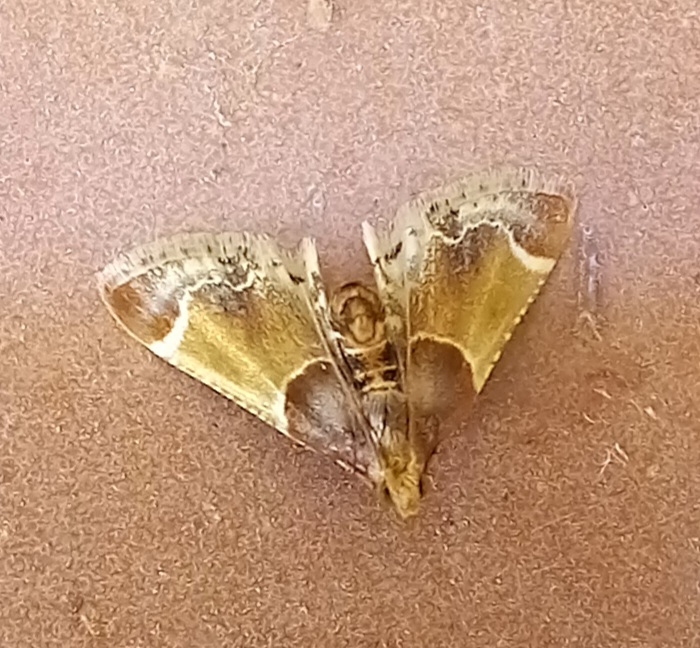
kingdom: Animalia
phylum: Arthropoda
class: Insecta
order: Lepidoptera
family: Pyralidae
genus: Pyralis
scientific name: Pyralis farinalis
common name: Meal moth
